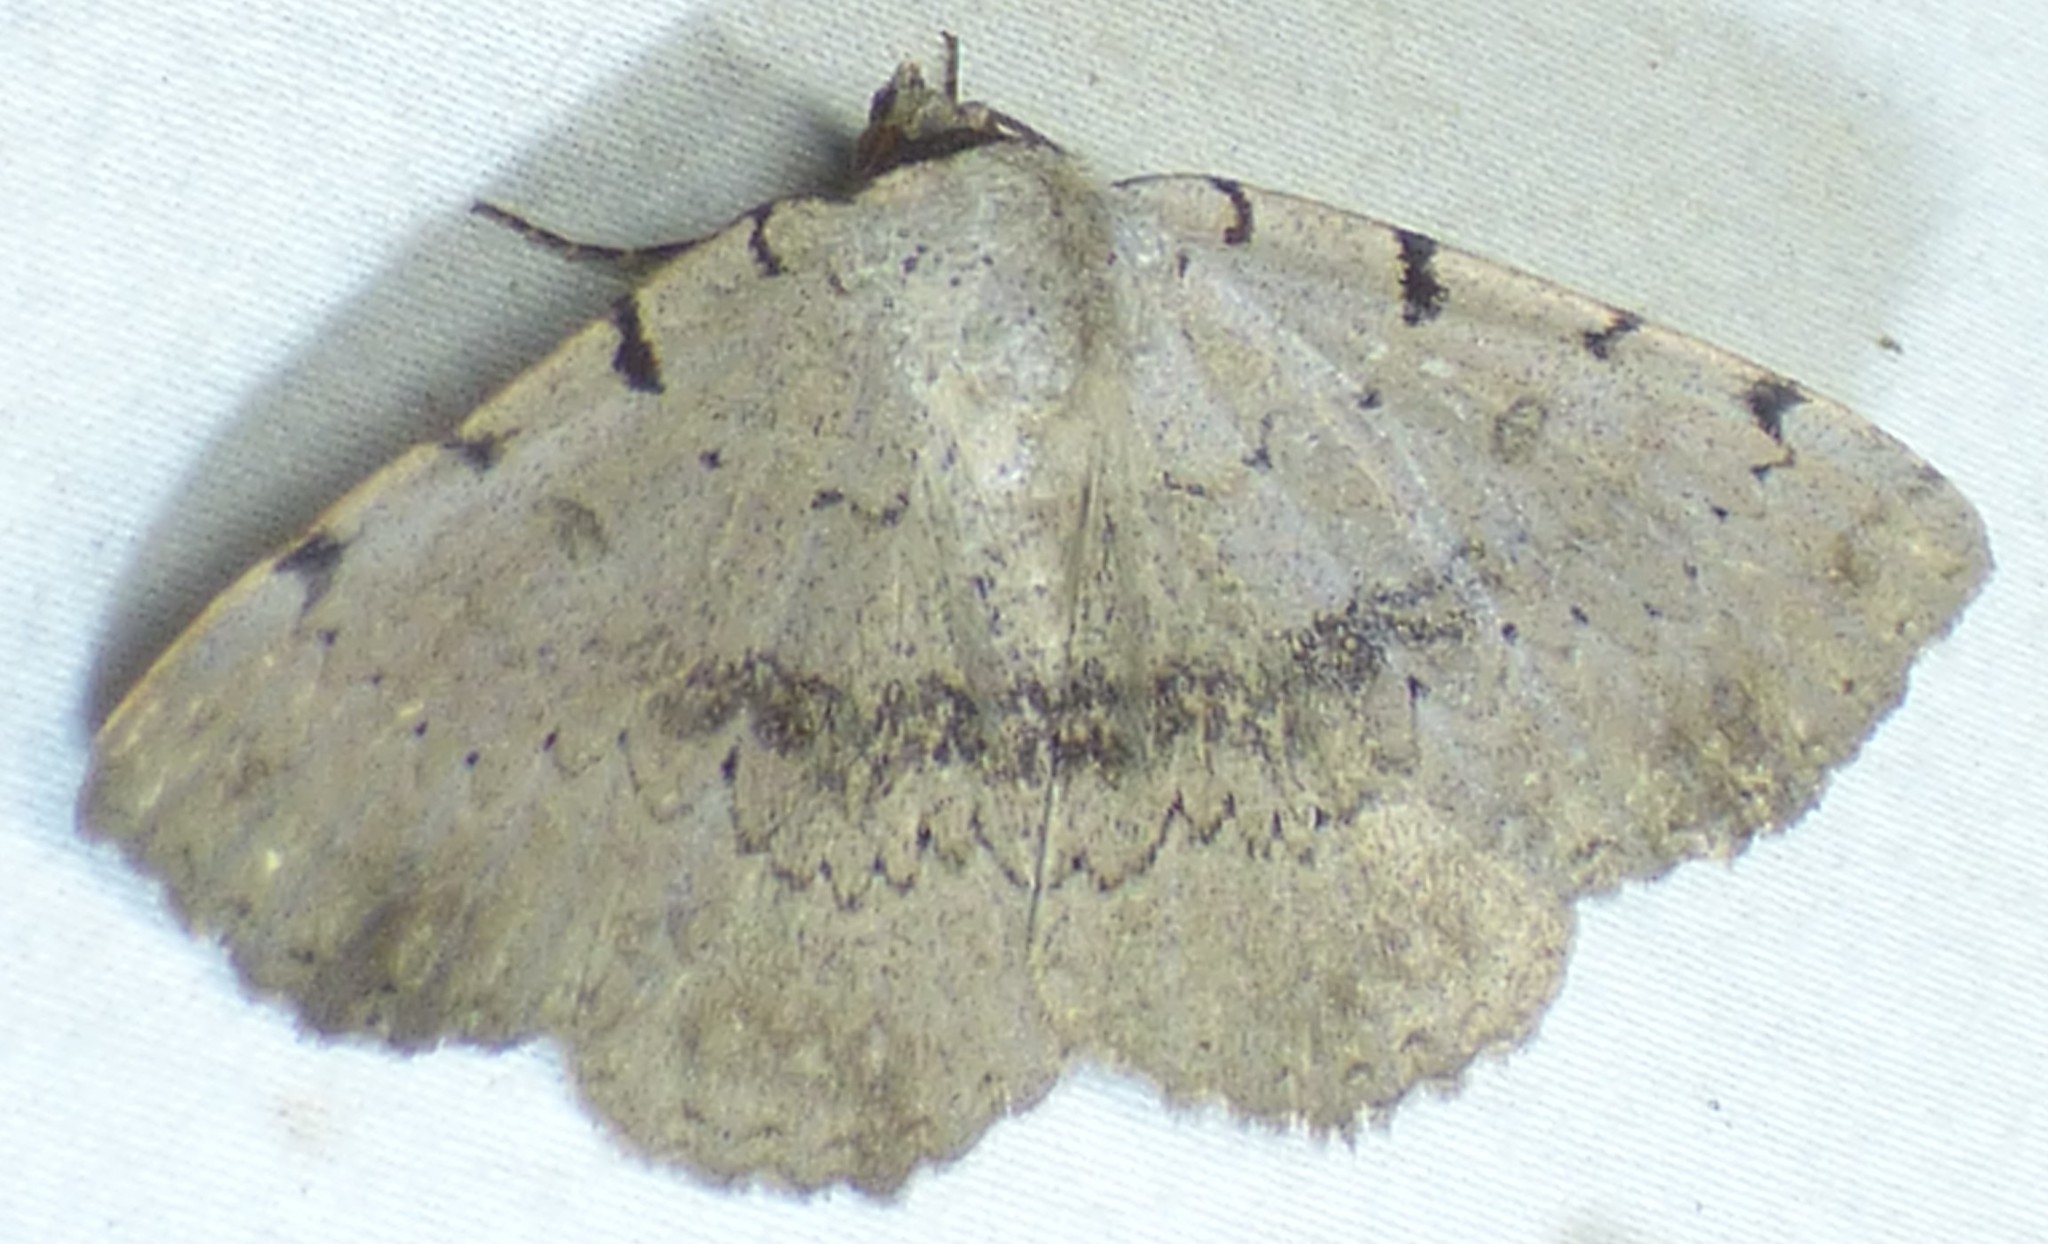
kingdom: Animalia
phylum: Arthropoda
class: Insecta
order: Lepidoptera
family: Erebidae
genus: Spiloloma
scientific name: Spiloloma lunilinea
